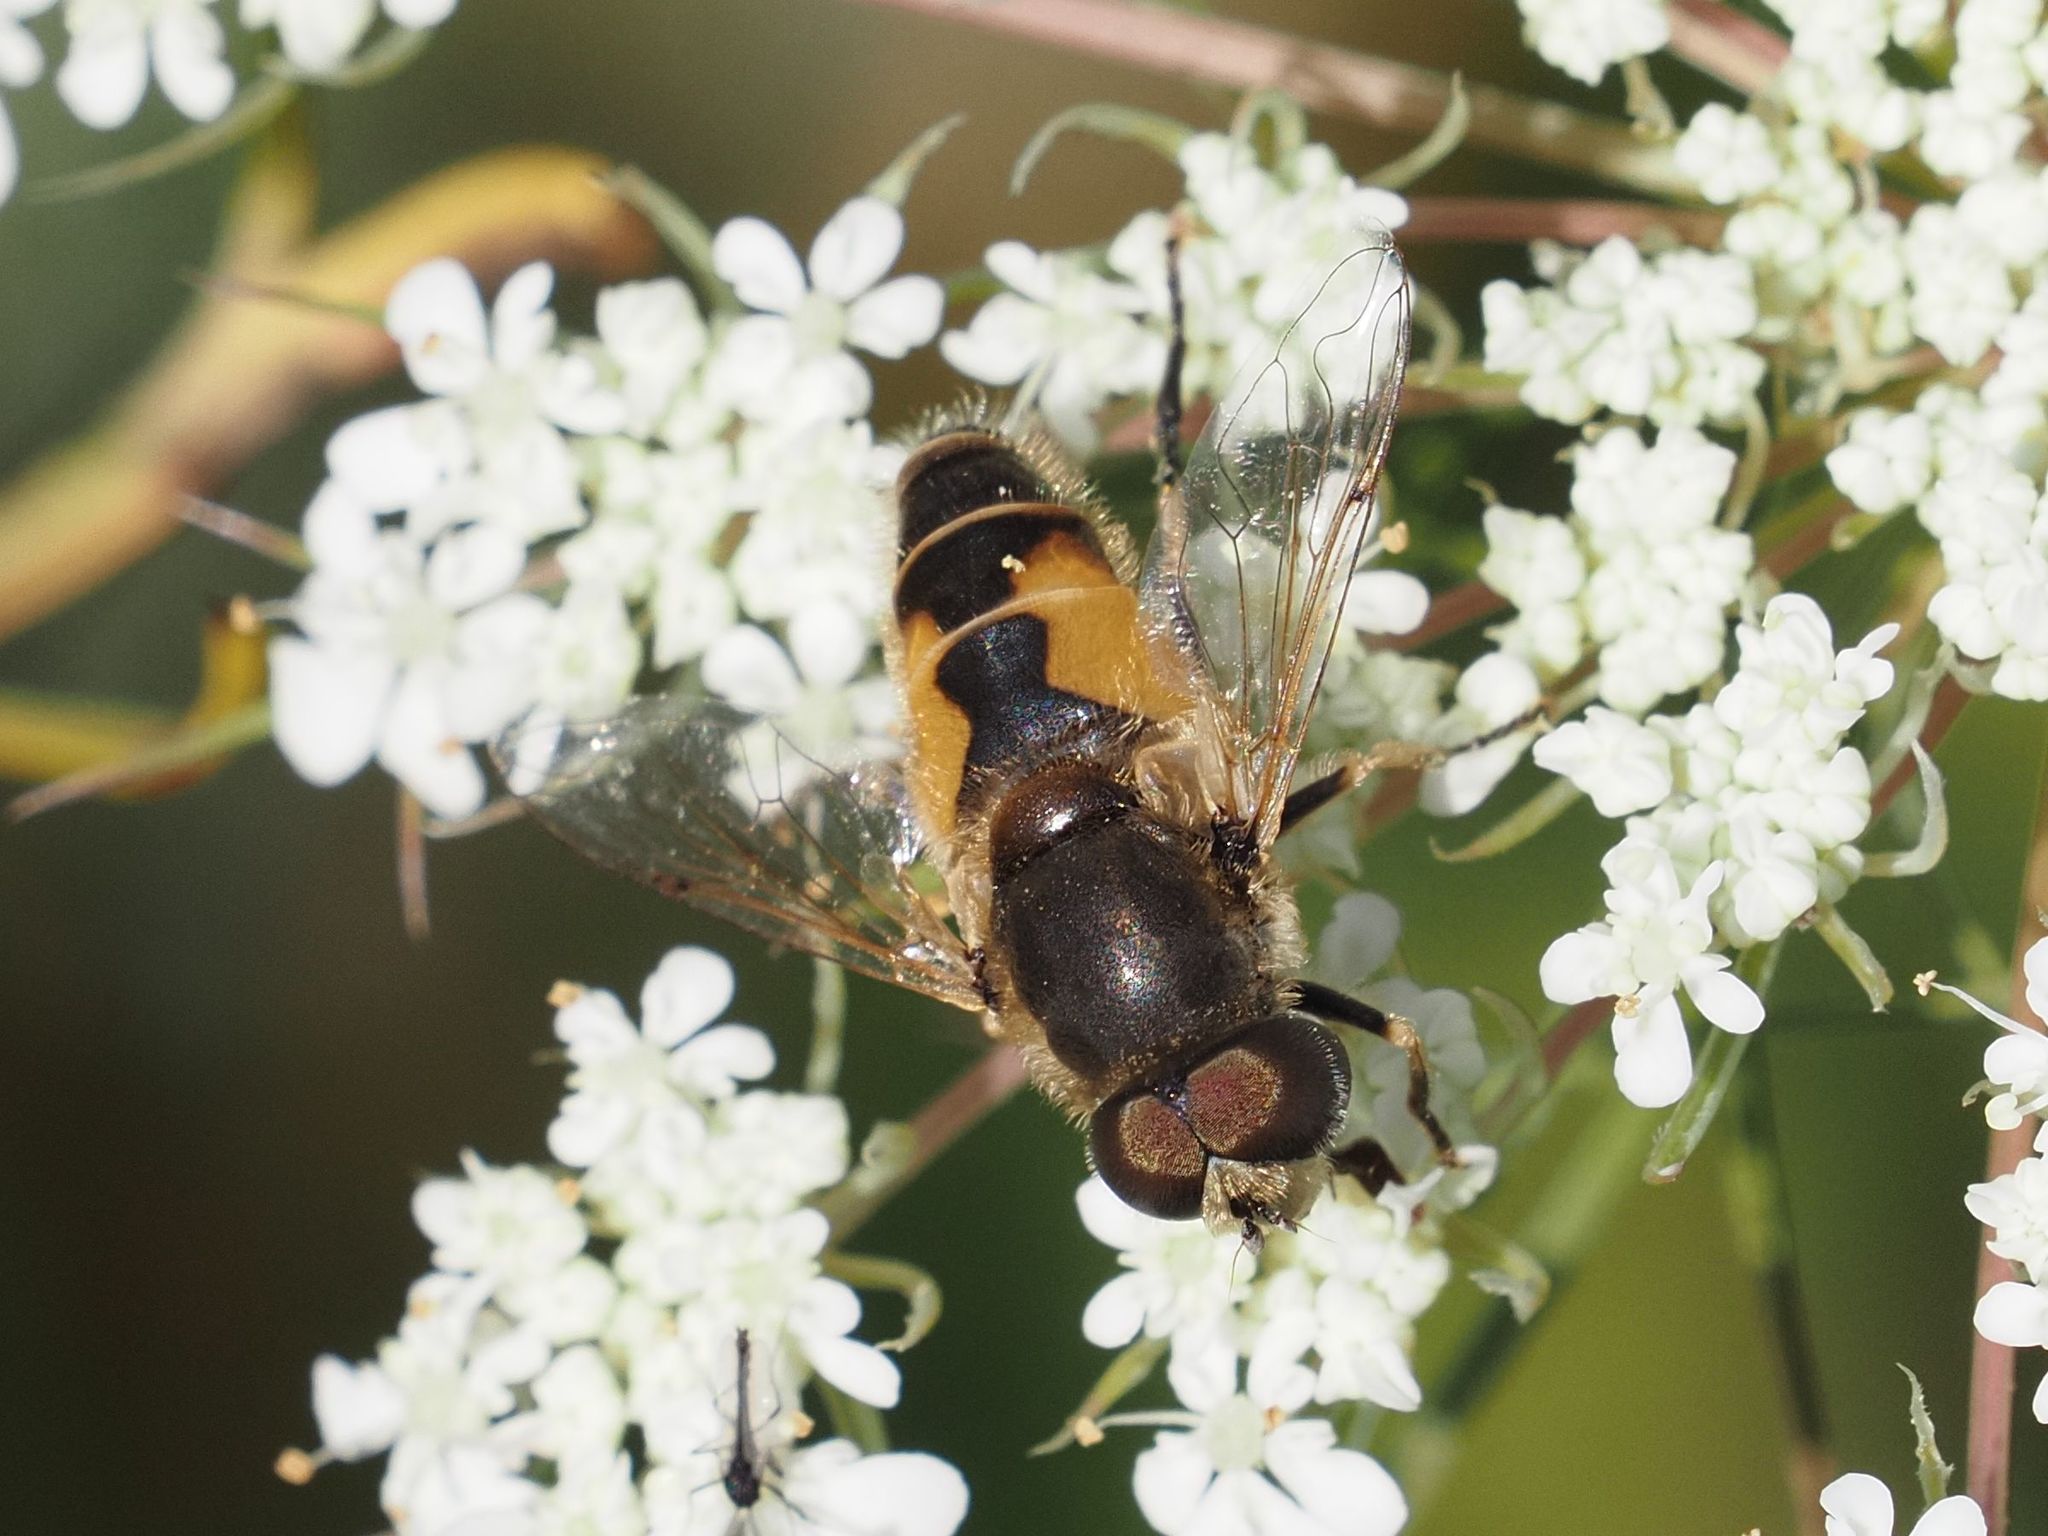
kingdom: Animalia
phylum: Arthropoda
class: Insecta
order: Diptera
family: Syrphidae
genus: Eristalis
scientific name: Eristalis arbustorum
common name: Hover fly
